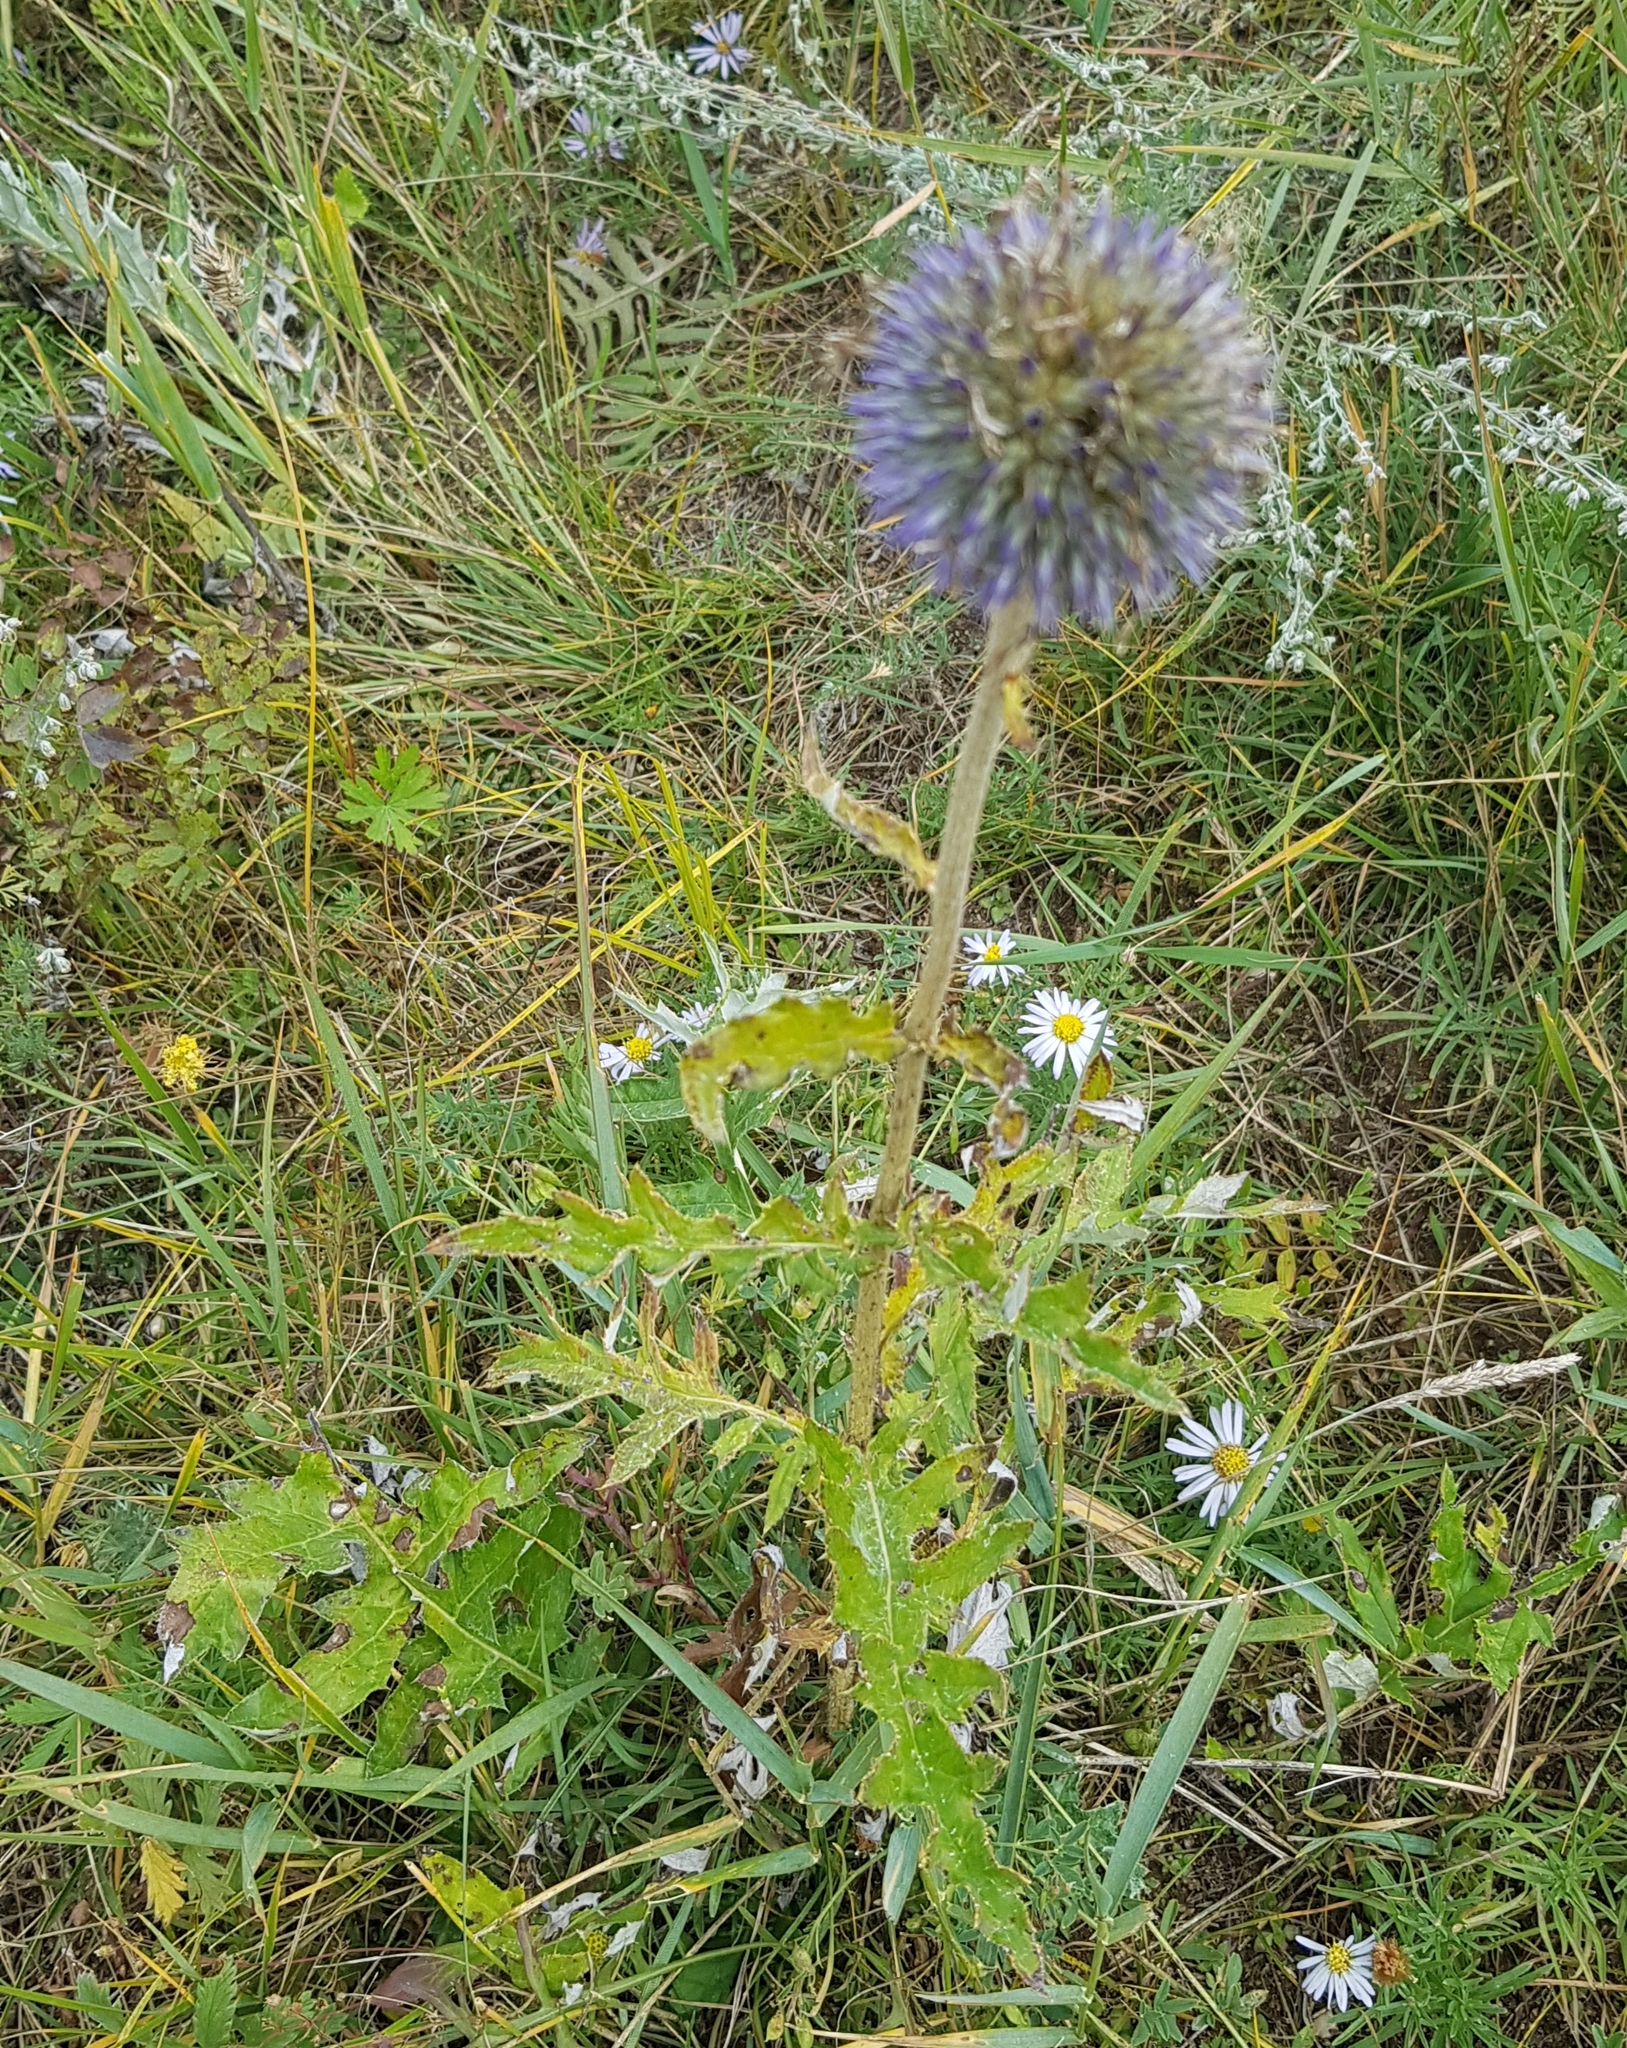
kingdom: Plantae
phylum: Tracheophyta
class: Magnoliopsida
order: Asterales
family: Asteraceae
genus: Echinops
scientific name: Echinops davuricus
